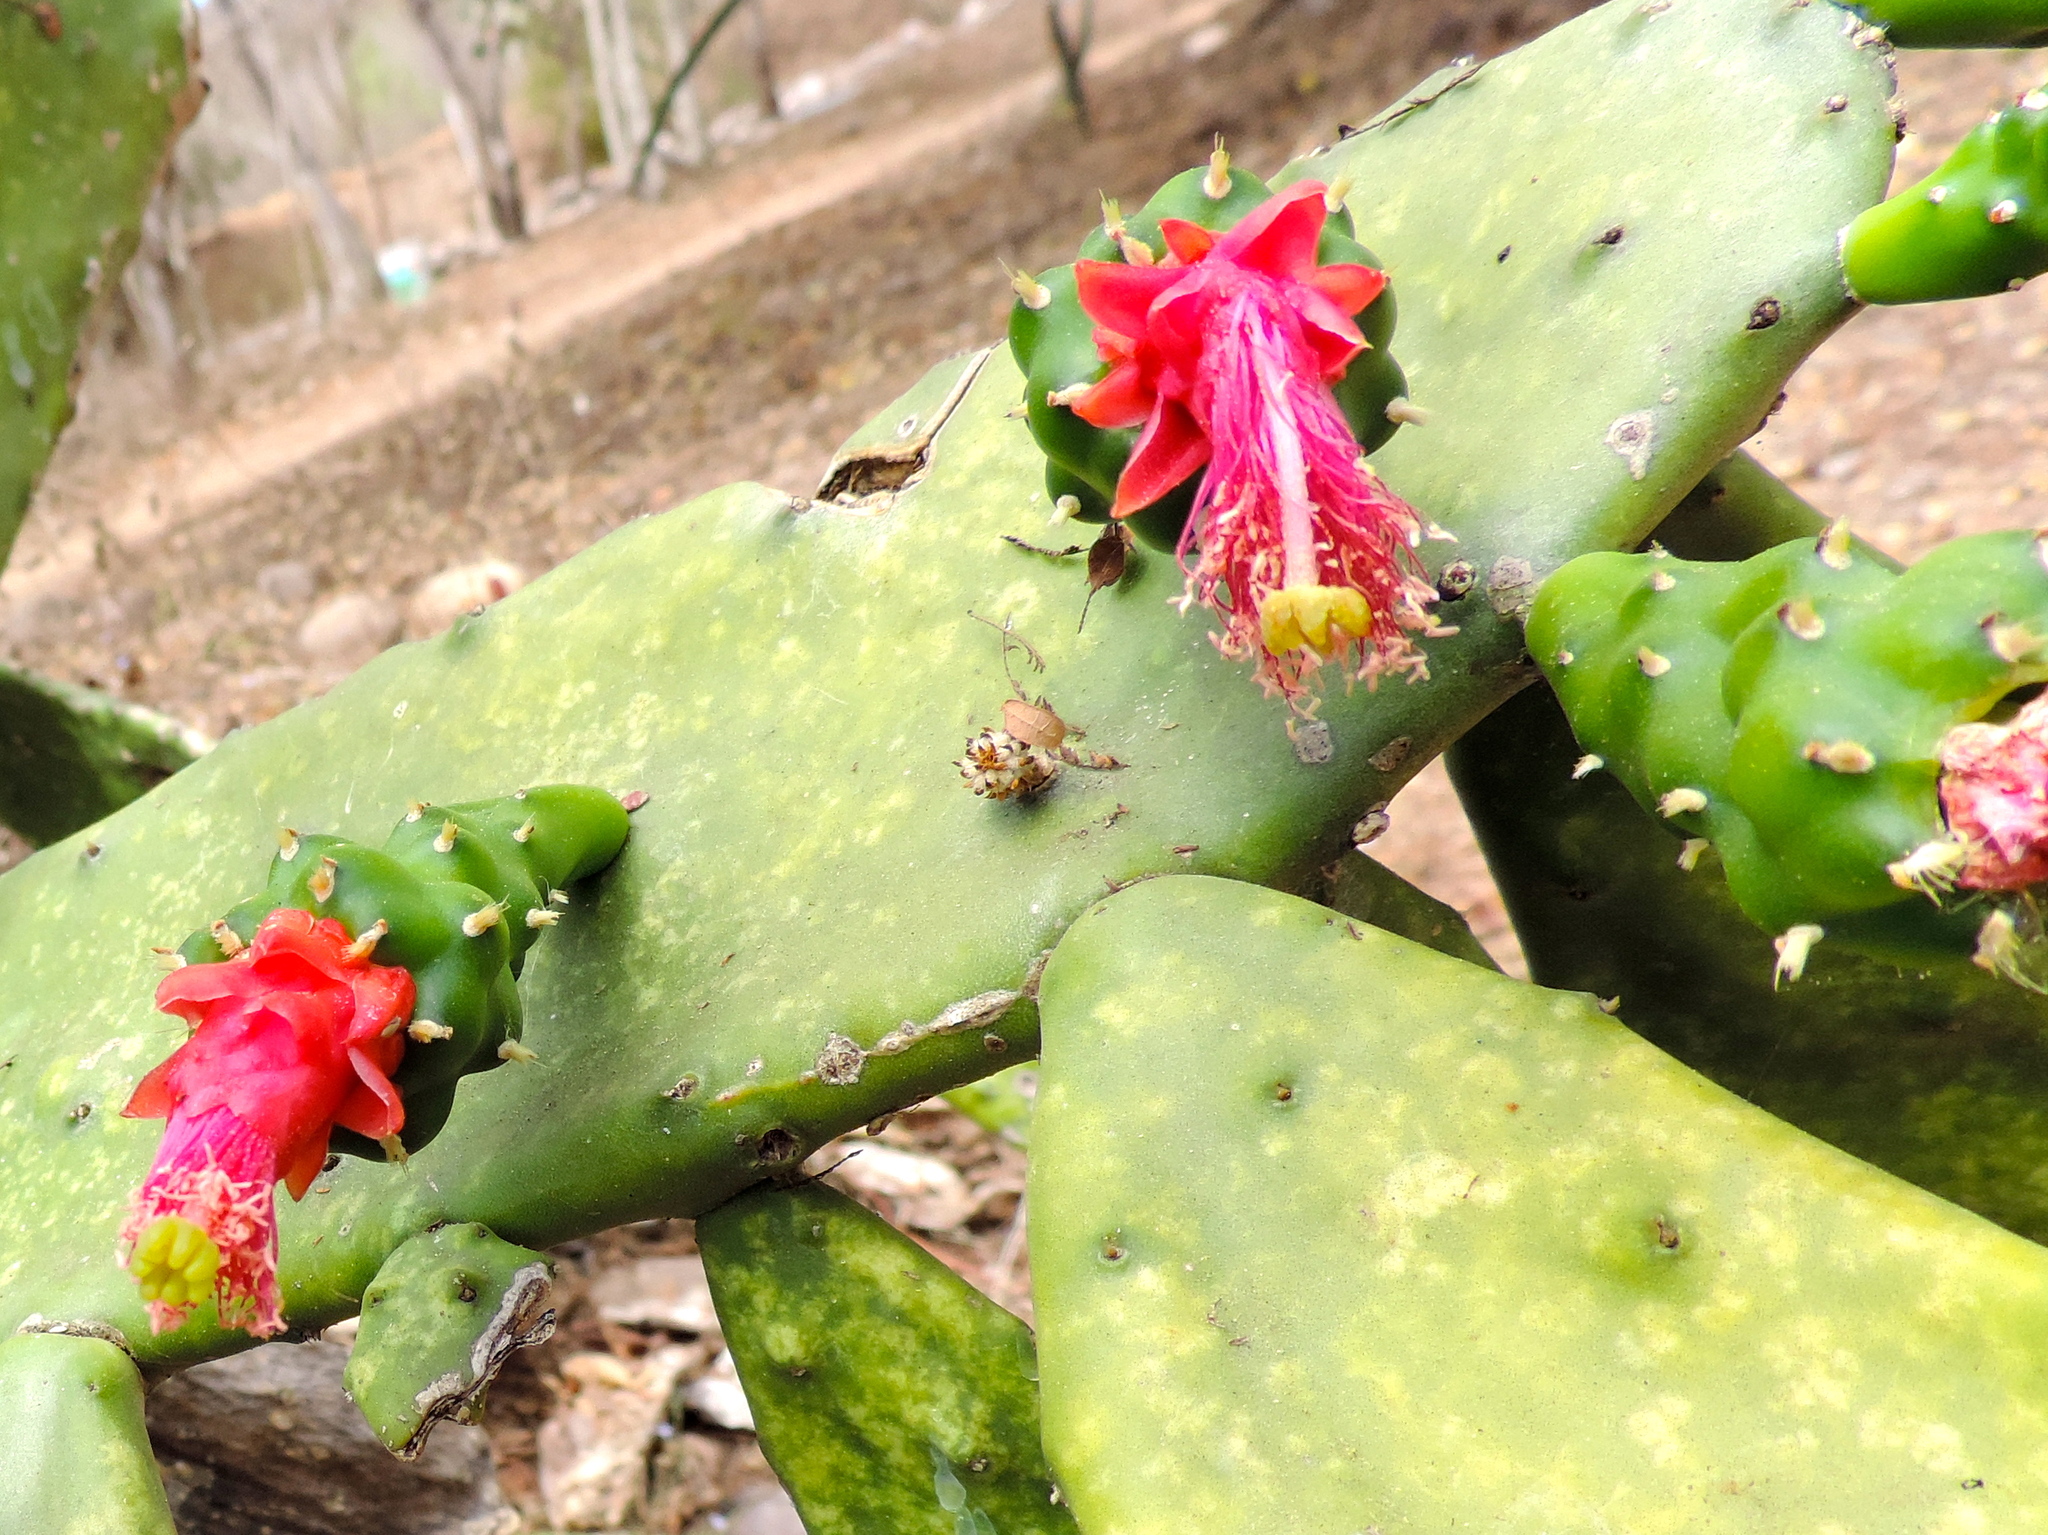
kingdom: Plantae
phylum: Tracheophyta
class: Magnoliopsida
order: Caryophyllales
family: Cactaceae
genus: Opuntia
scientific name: Opuntia cochenillifera
